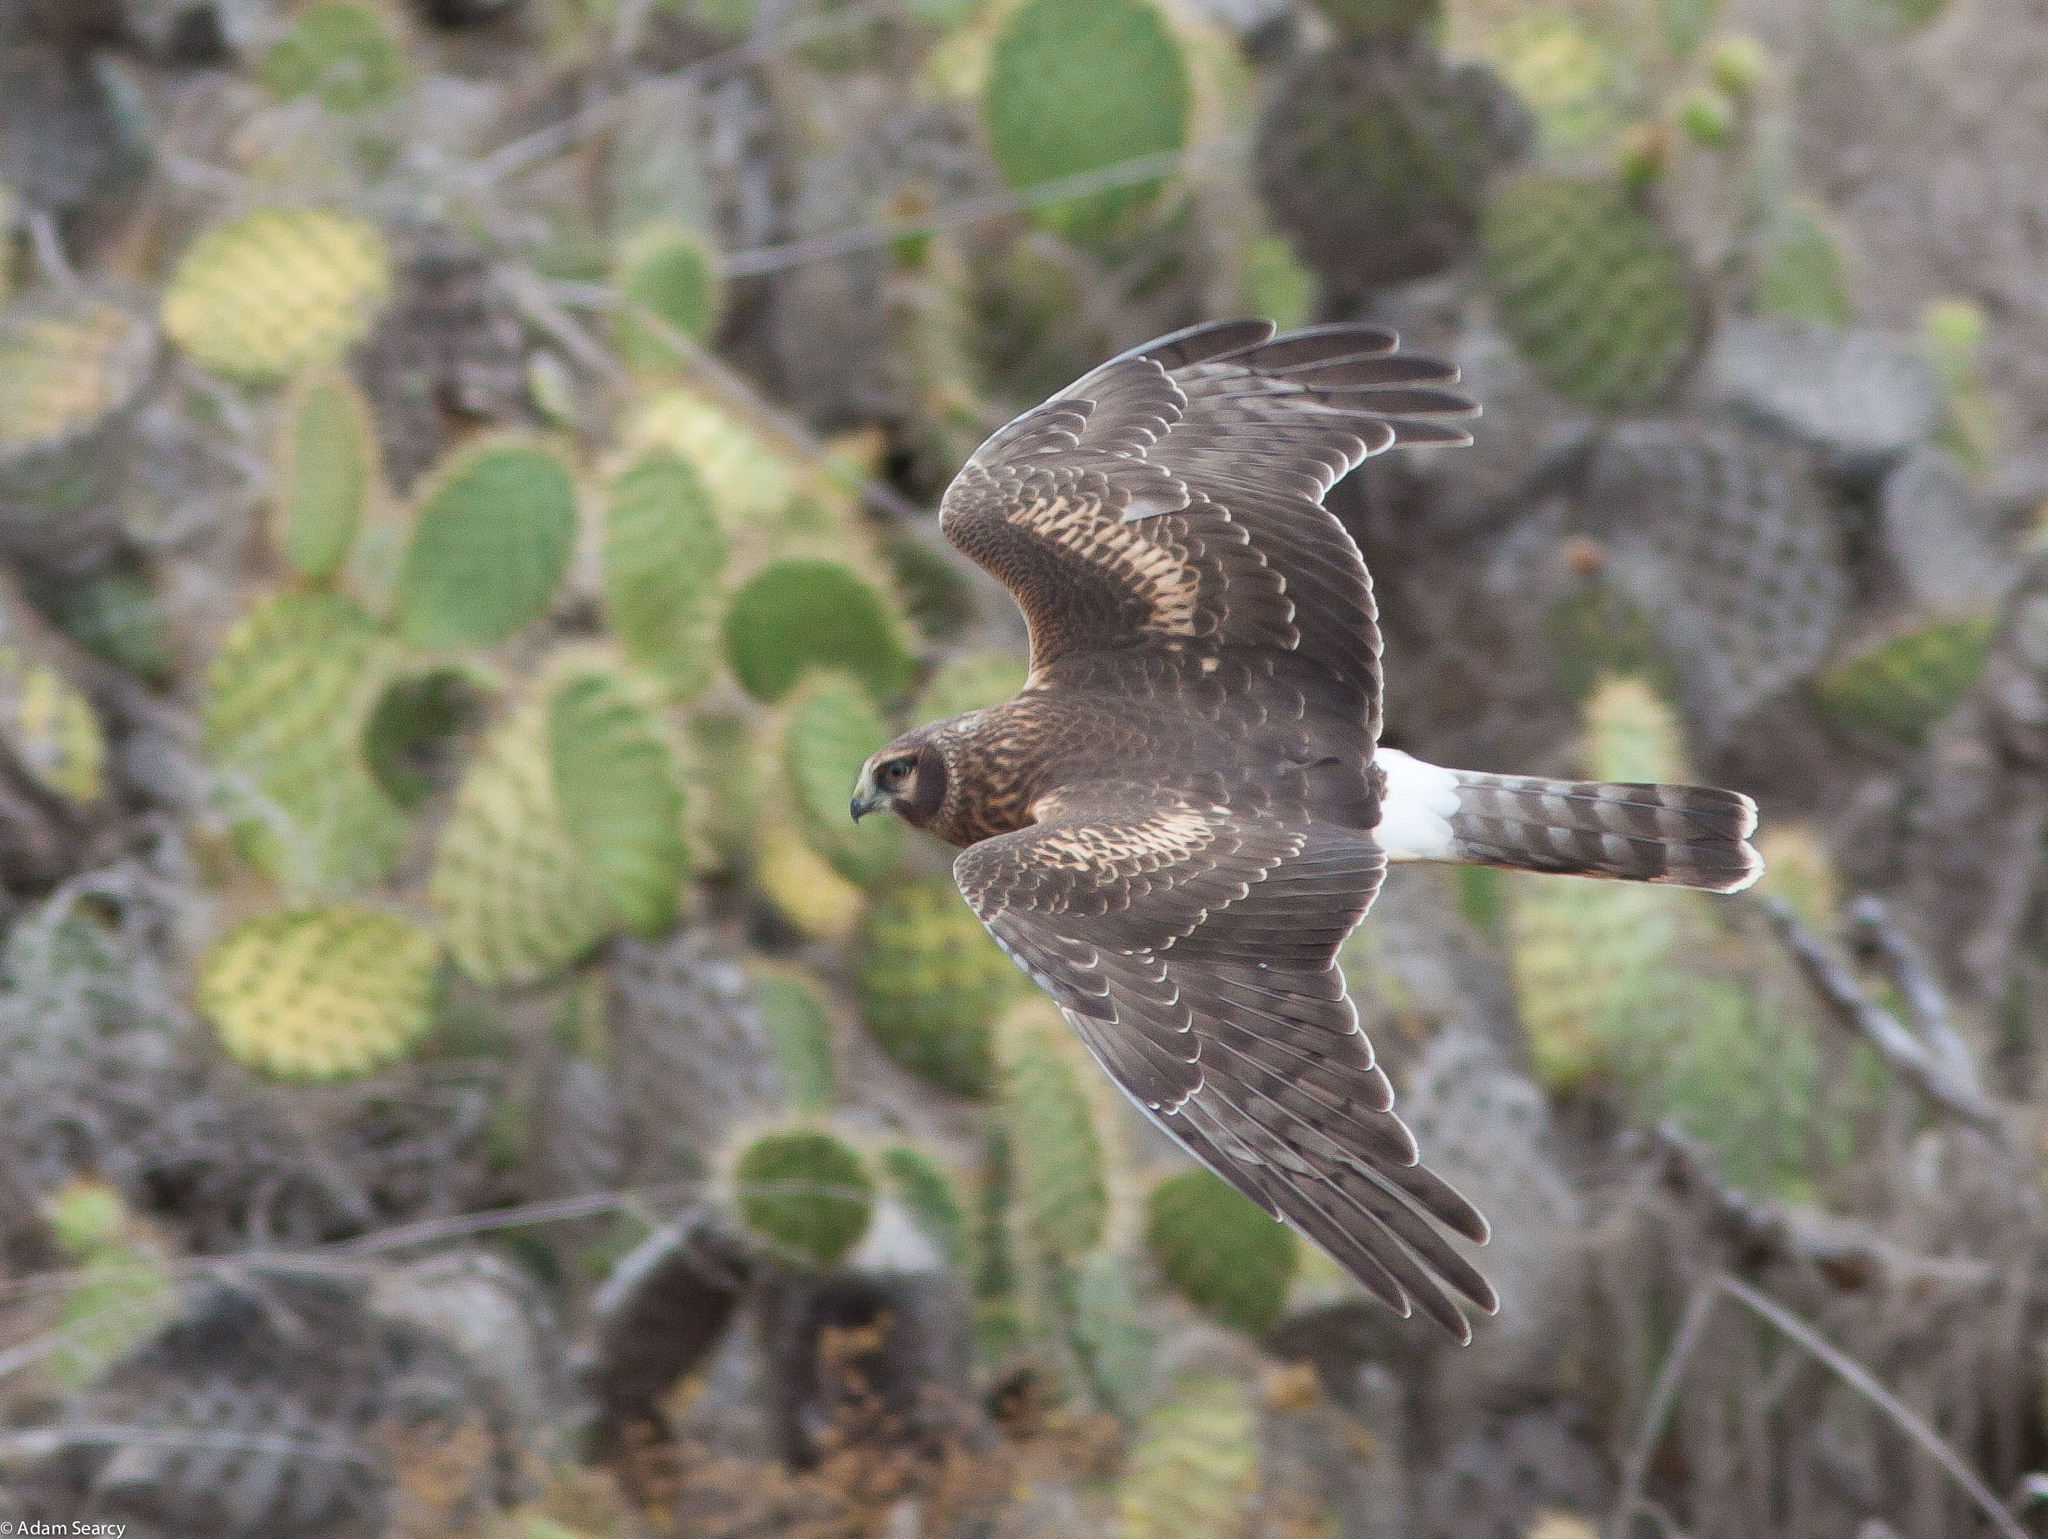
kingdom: Animalia
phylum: Chordata
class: Aves
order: Accipitriformes
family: Accipitridae
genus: Circus
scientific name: Circus cyaneus
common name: Hen harrier
